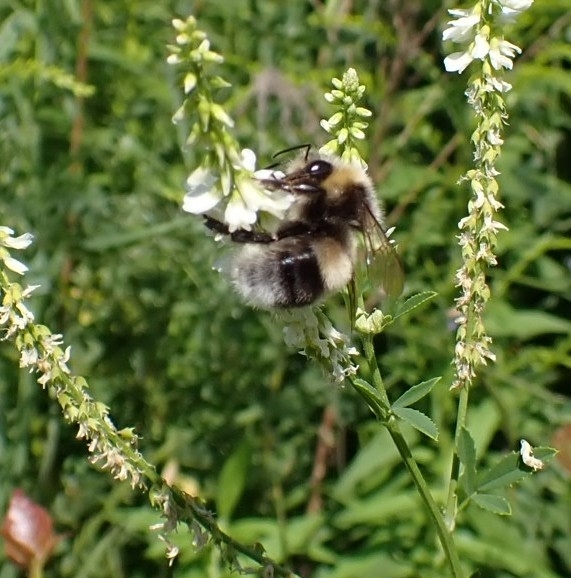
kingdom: Animalia
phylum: Arthropoda
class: Insecta
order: Hymenoptera
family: Apidae
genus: Bombus
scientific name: Bombus lucorum
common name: White-tailed bumblebee
